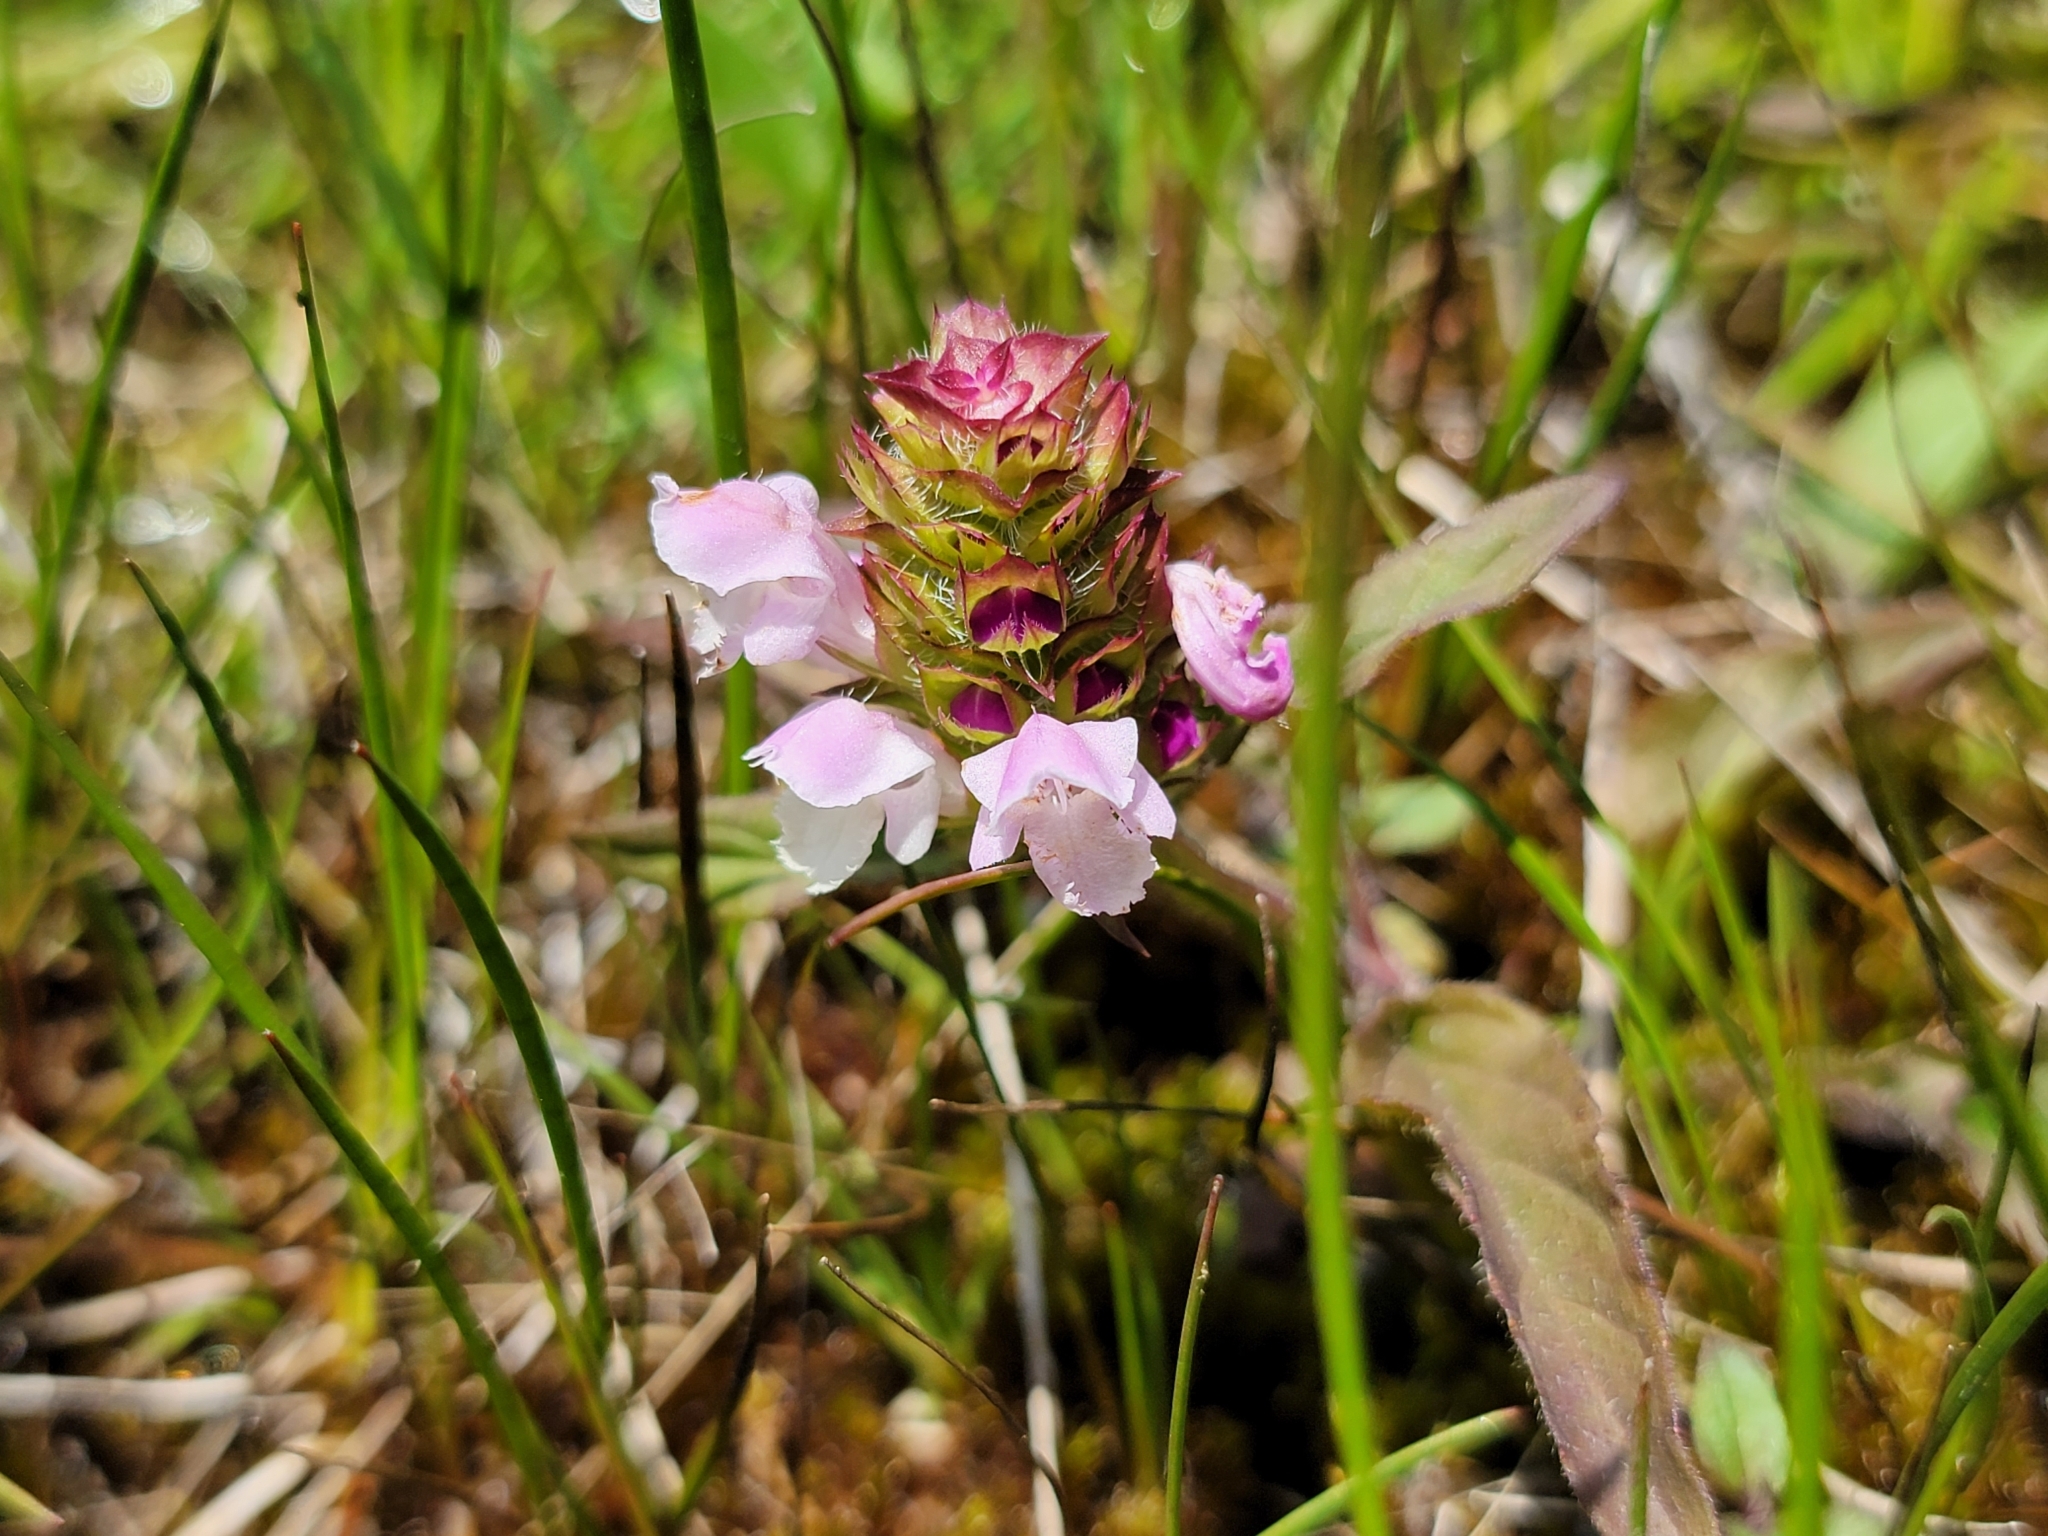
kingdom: Plantae
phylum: Tracheophyta
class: Magnoliopsida
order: Lamiales
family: Lamiaceae
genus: Prunella
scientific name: Prunella vulgaris
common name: Heal-all
